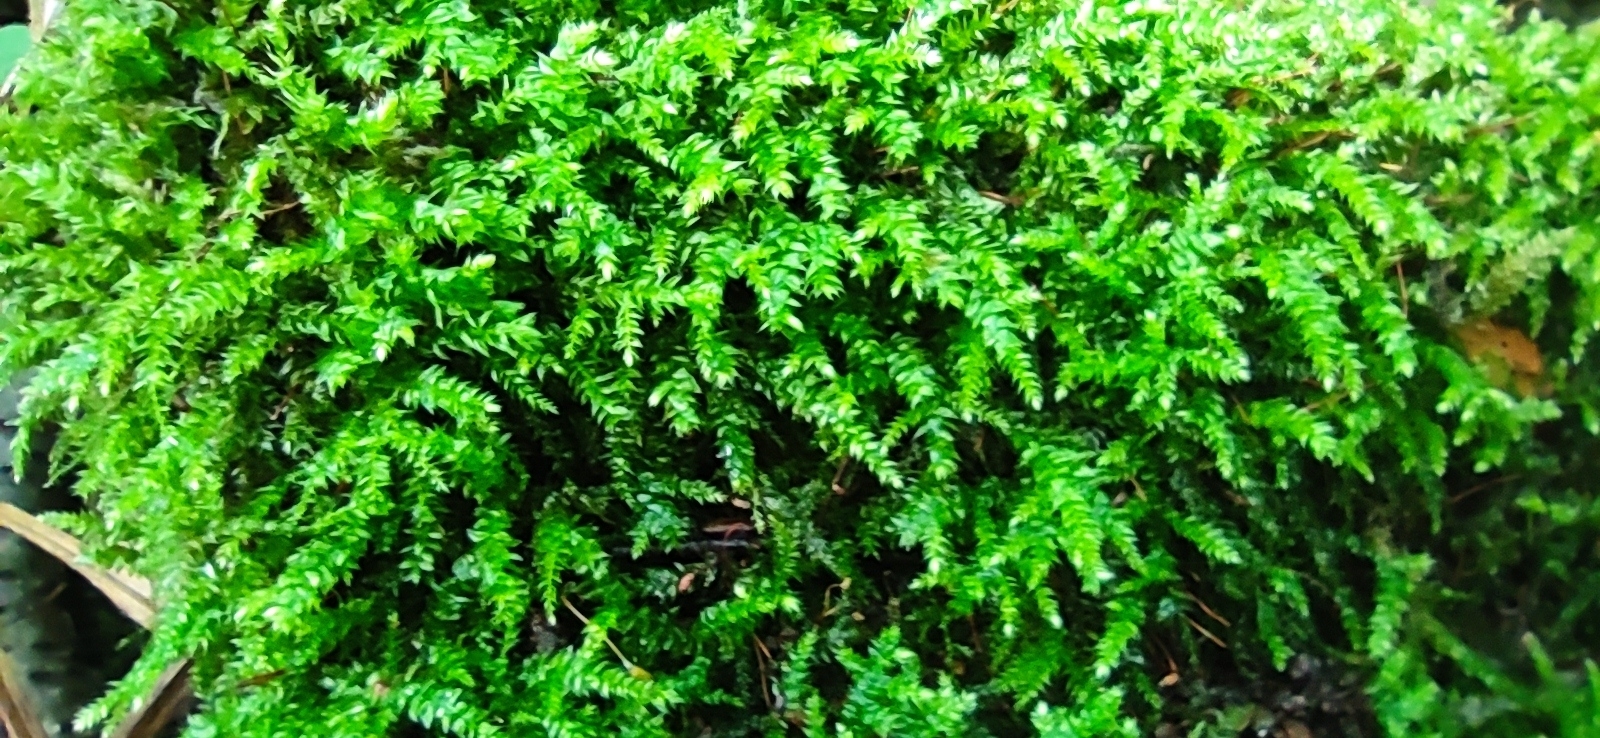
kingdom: Plantae
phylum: Bryophyta
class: Bryopsida
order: Hypnales
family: Brachytheciaceae
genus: Brachythecium
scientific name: Brachythecium rutabulum
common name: Rough-stalked feather-moss
